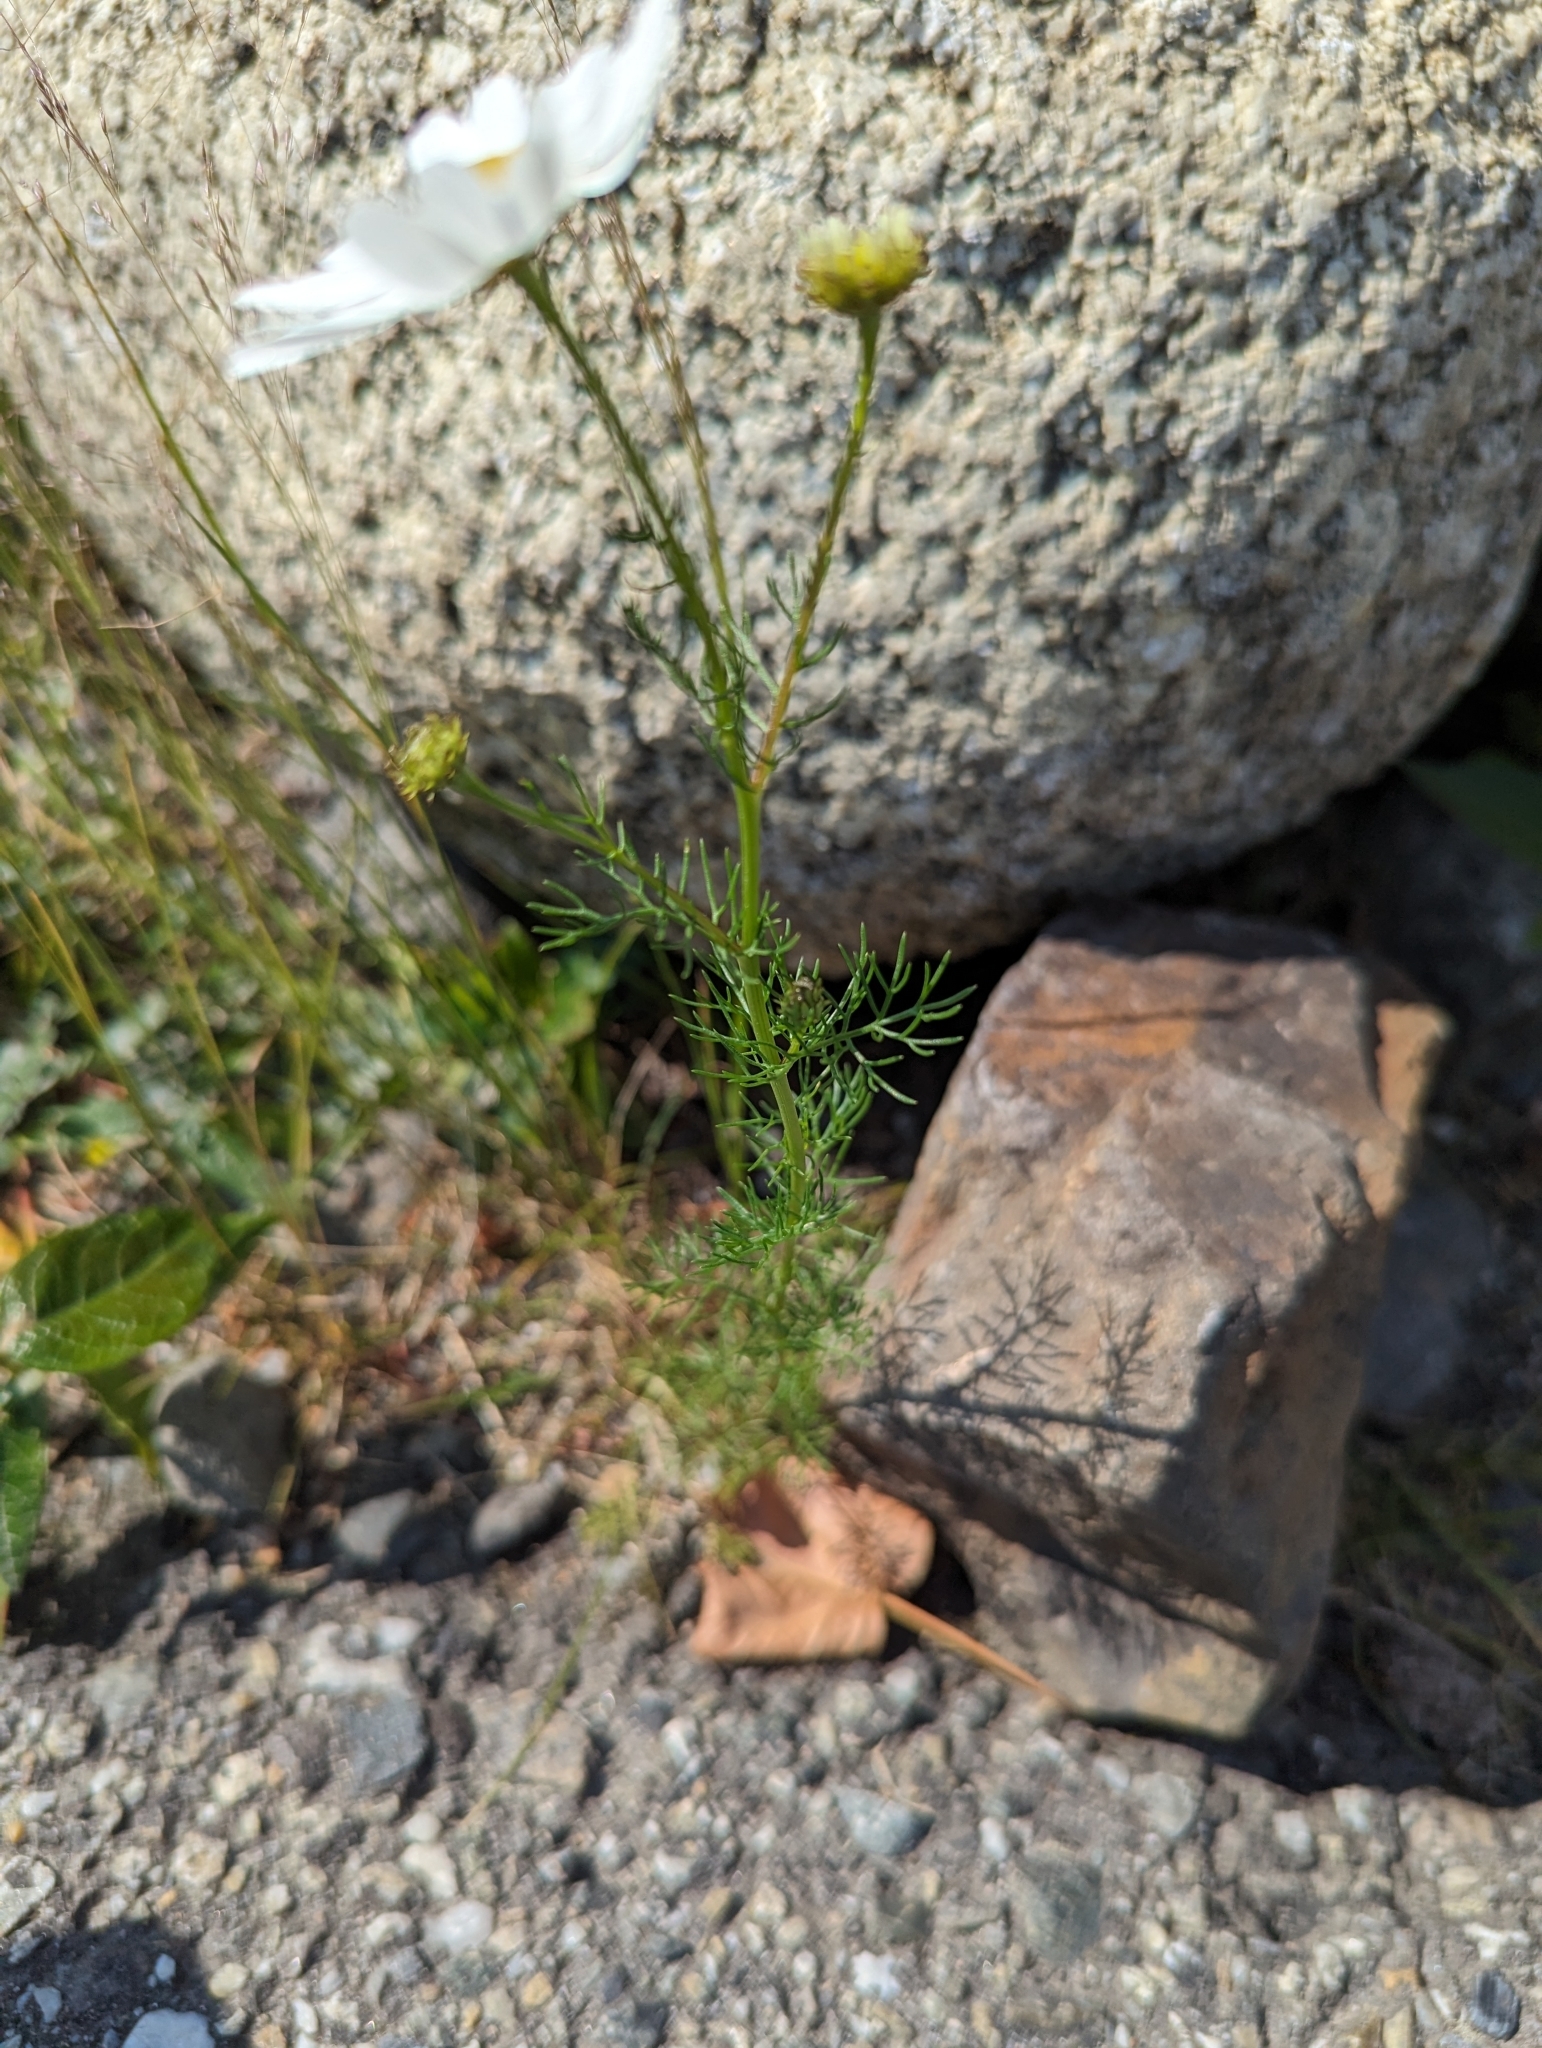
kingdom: Plantae
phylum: Tracheophyta
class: Magnoliopsida
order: Asterales
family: Asteraceae
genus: Tripleurospermum
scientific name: Tripleurospermum inodorum
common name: Scentless mayweed
